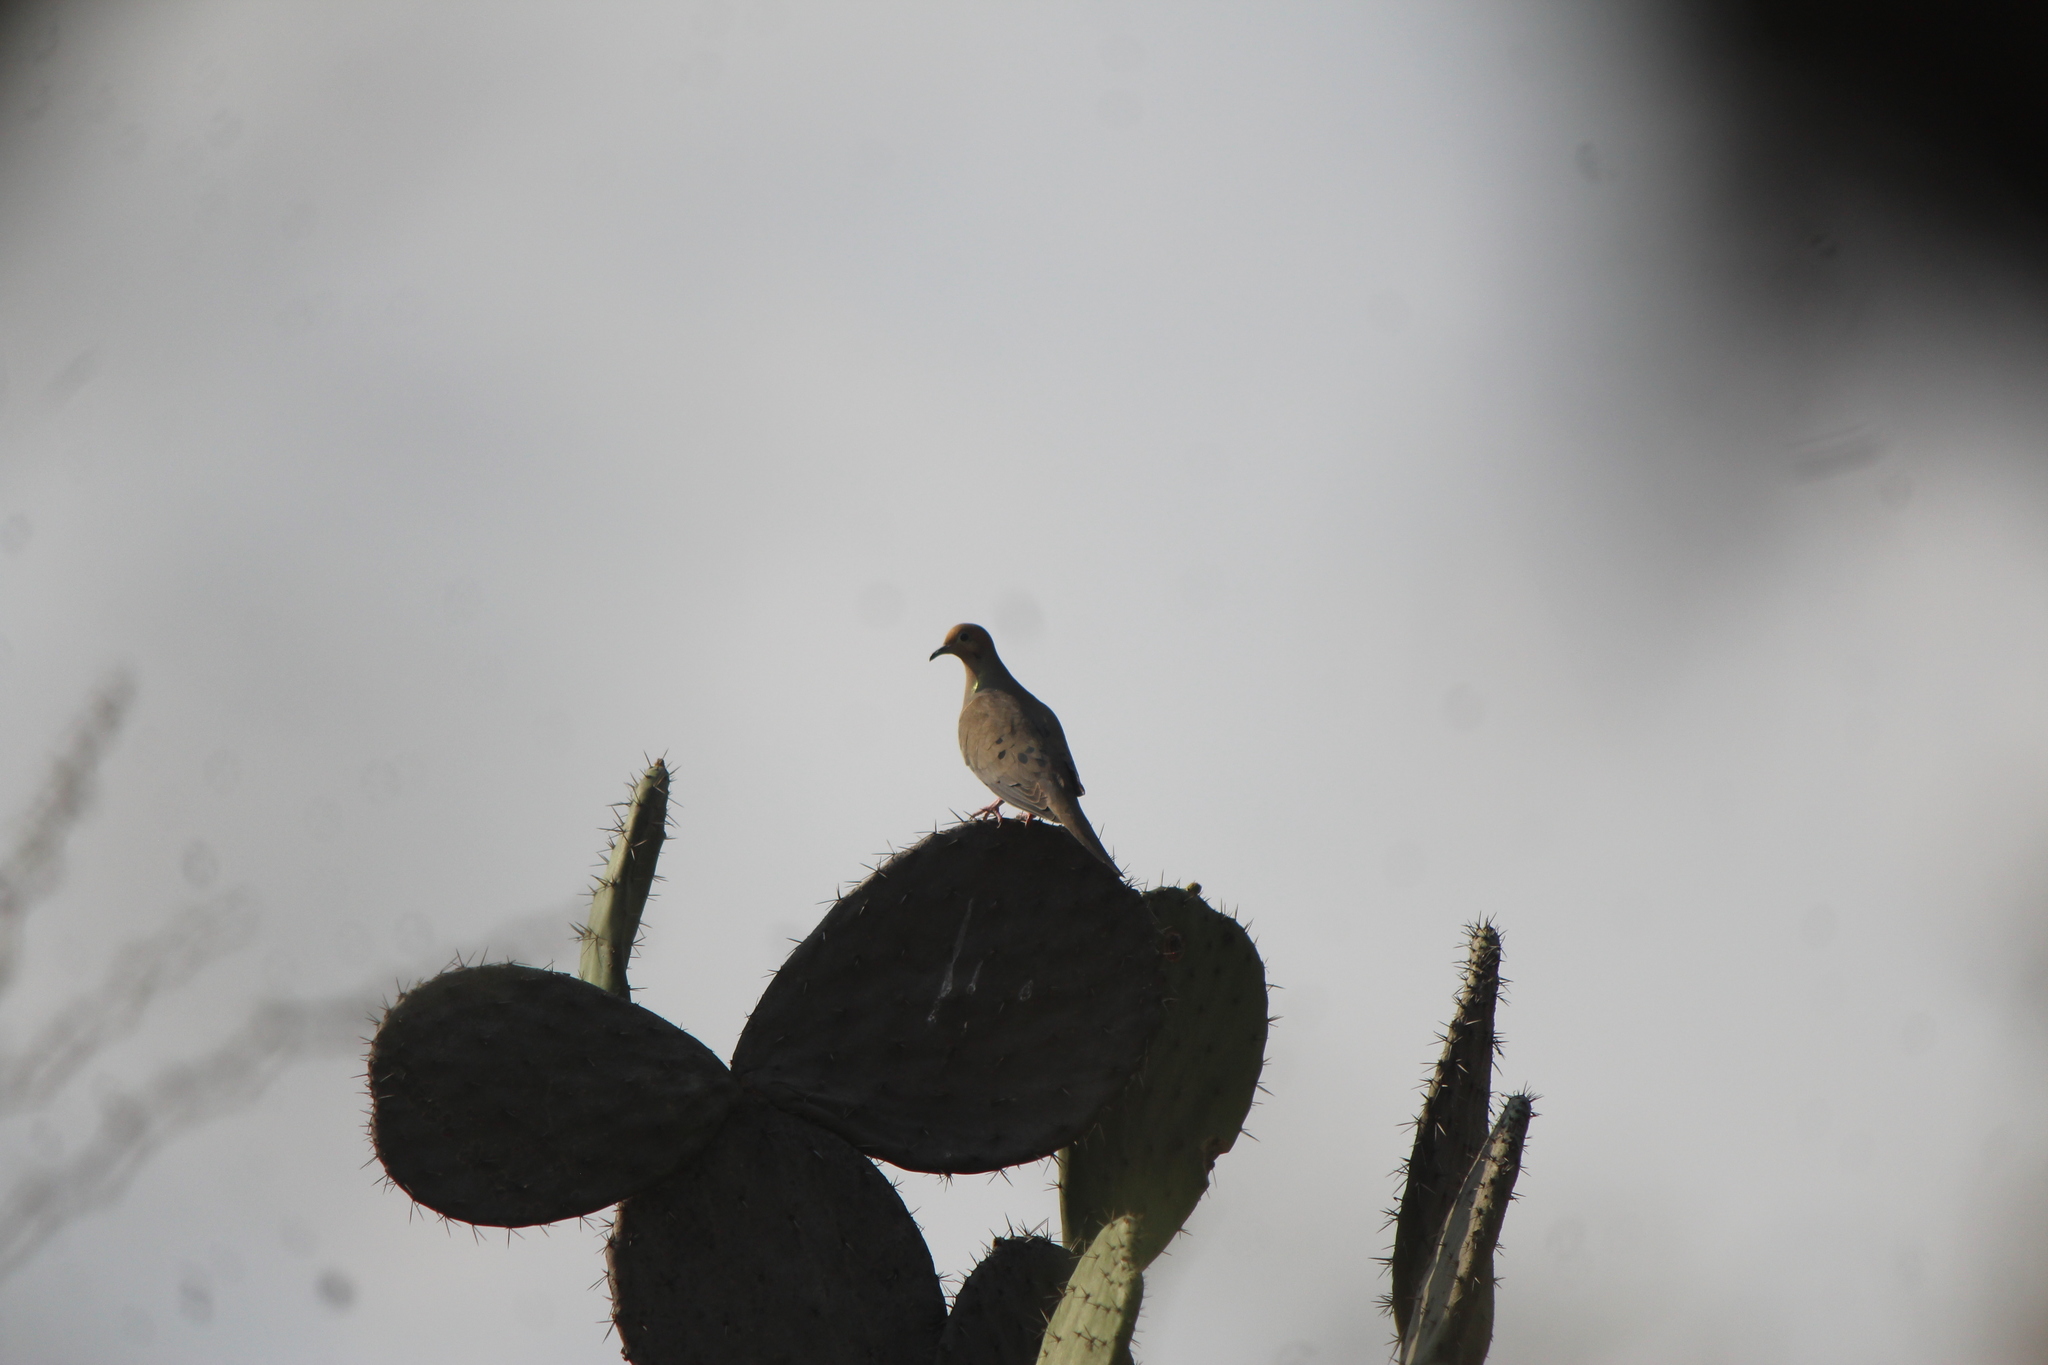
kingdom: Animalia
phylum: Chordata
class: Aves
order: Columbiformes
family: Columbidae
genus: Zenaida
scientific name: Zenaida macroura
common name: Mourning dove
